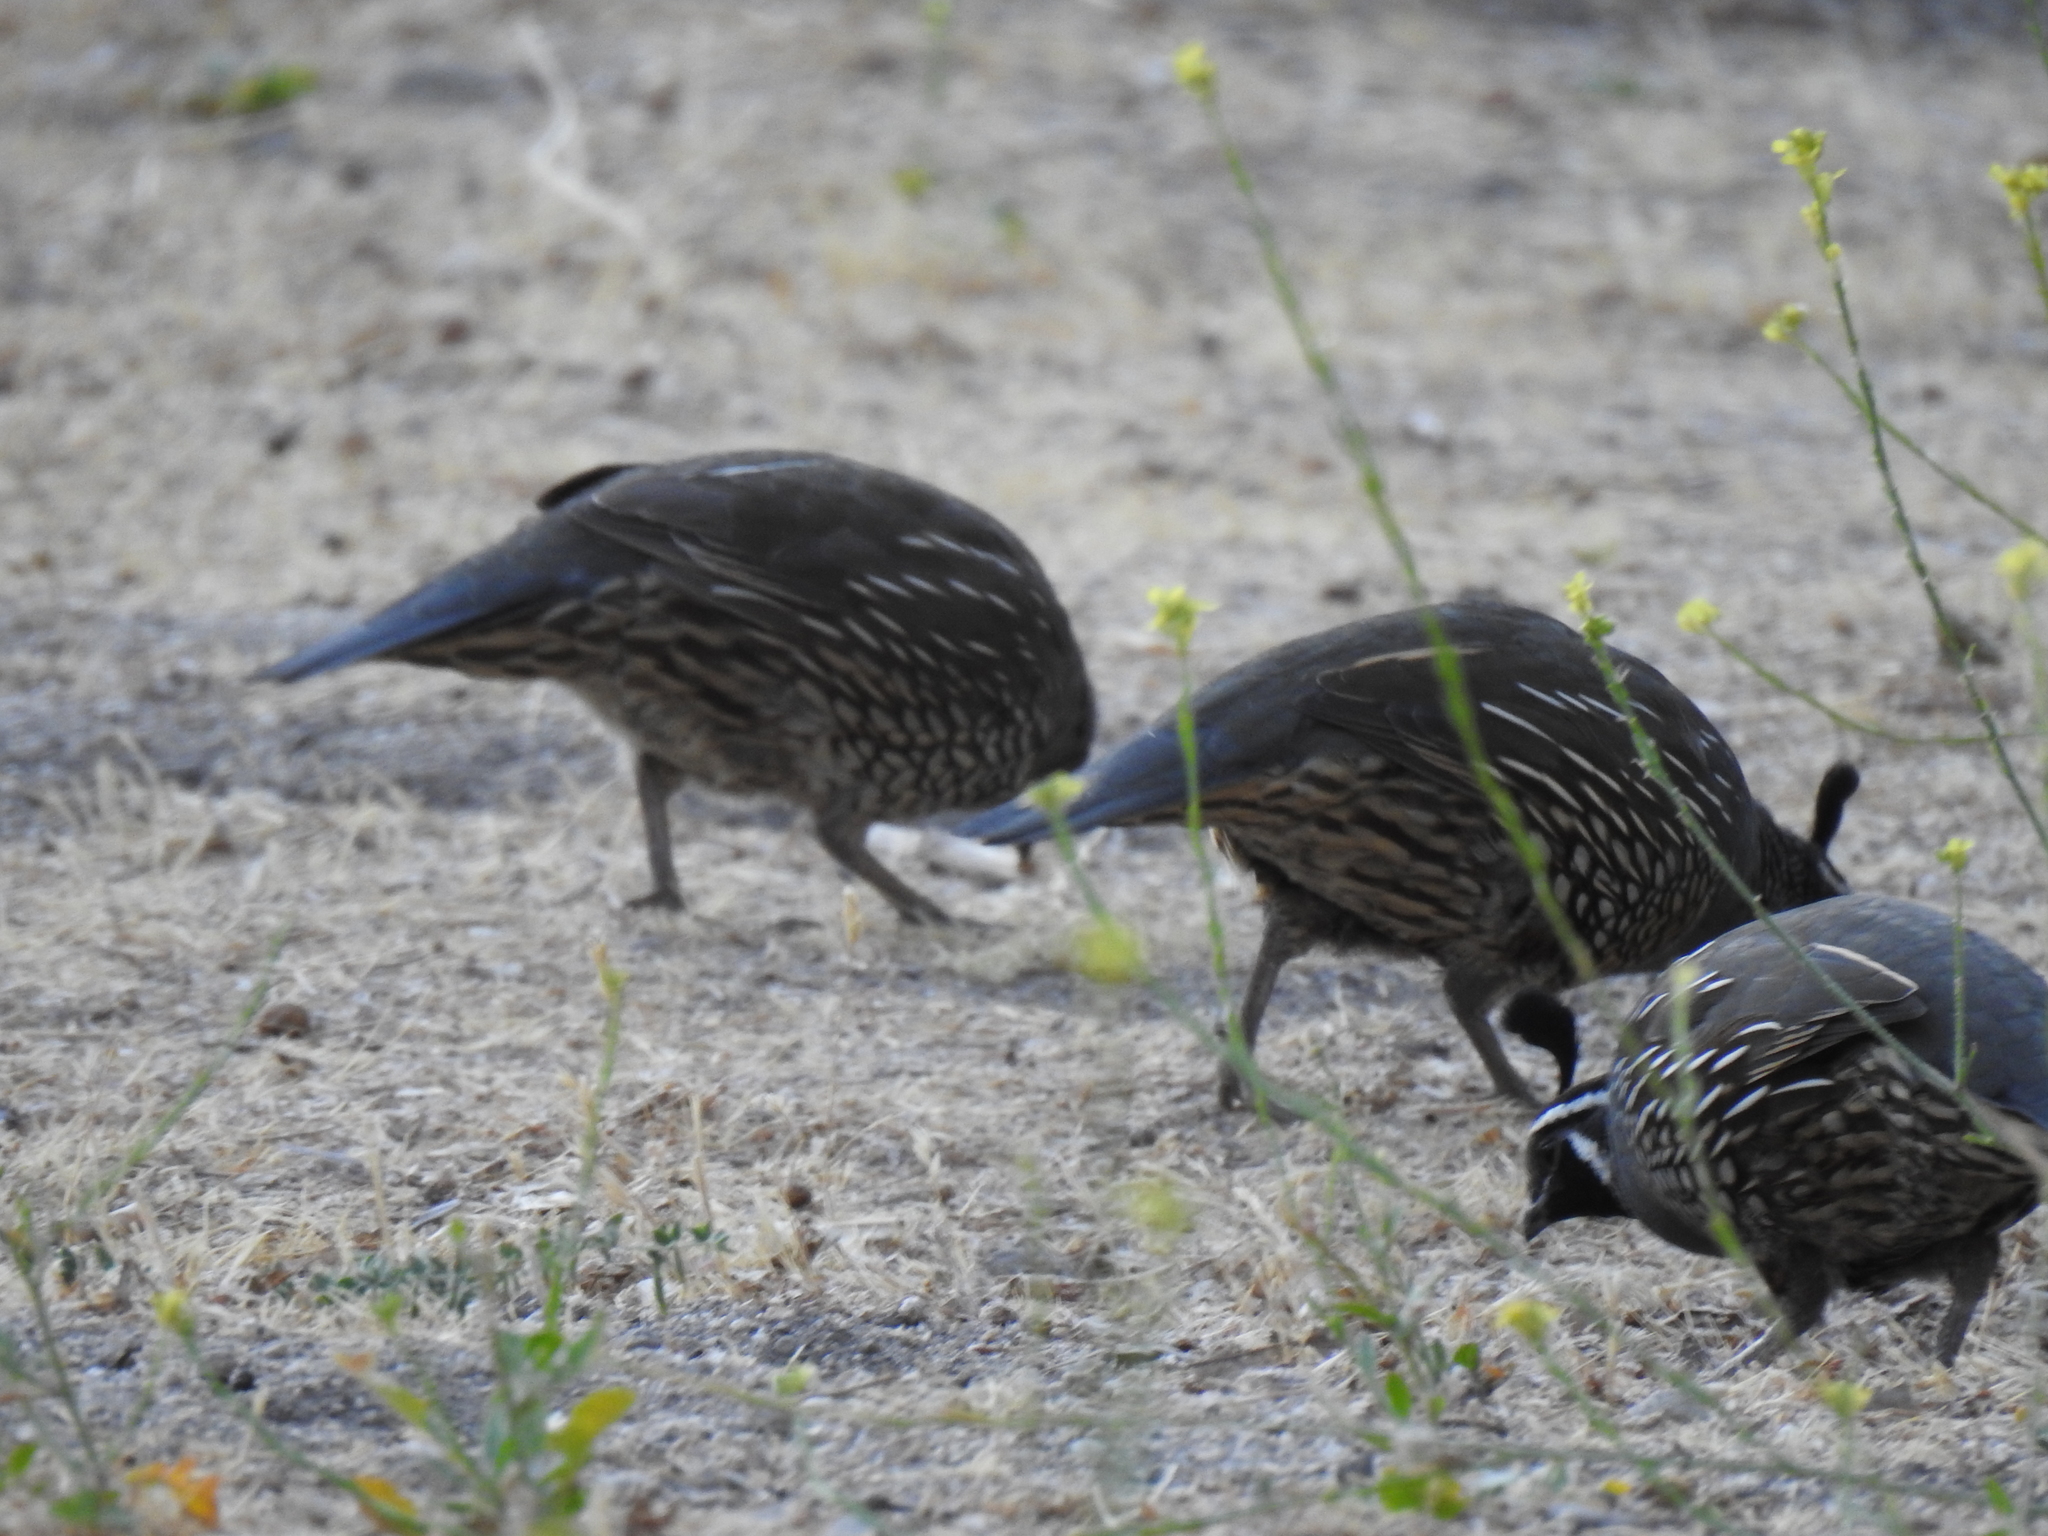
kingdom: Animalia
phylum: Chordata
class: Aves
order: Galliformes
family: Odontophoridae
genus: Callipepla
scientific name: Callipepla californica
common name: California quail
